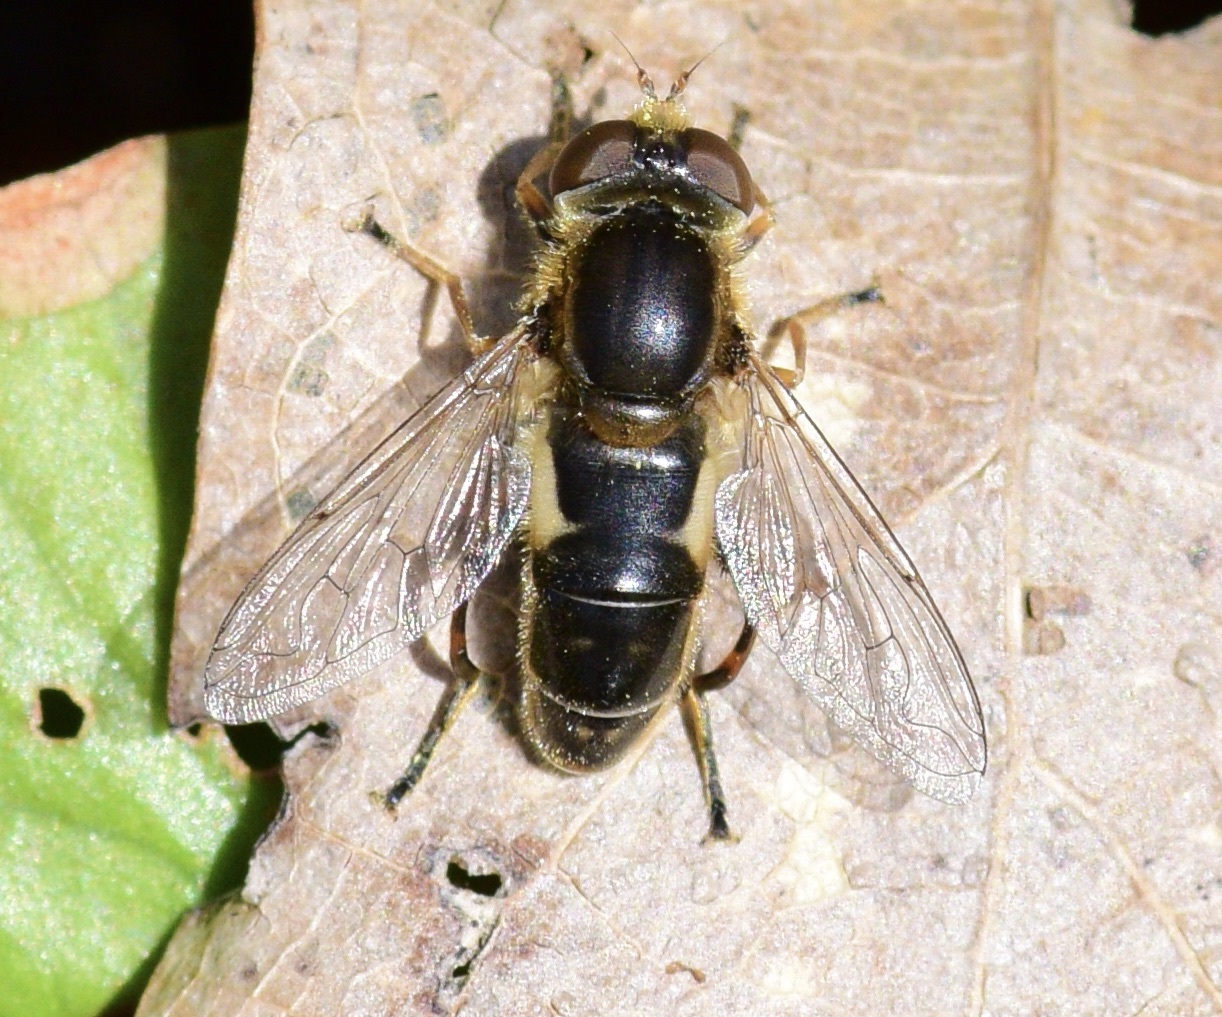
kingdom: Animalia
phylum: Arthropoda
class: Insecta
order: Diptera
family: Syrphidae
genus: Anasimyia
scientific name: Anasimyia bilinearis
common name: Two-lined swamp fly
